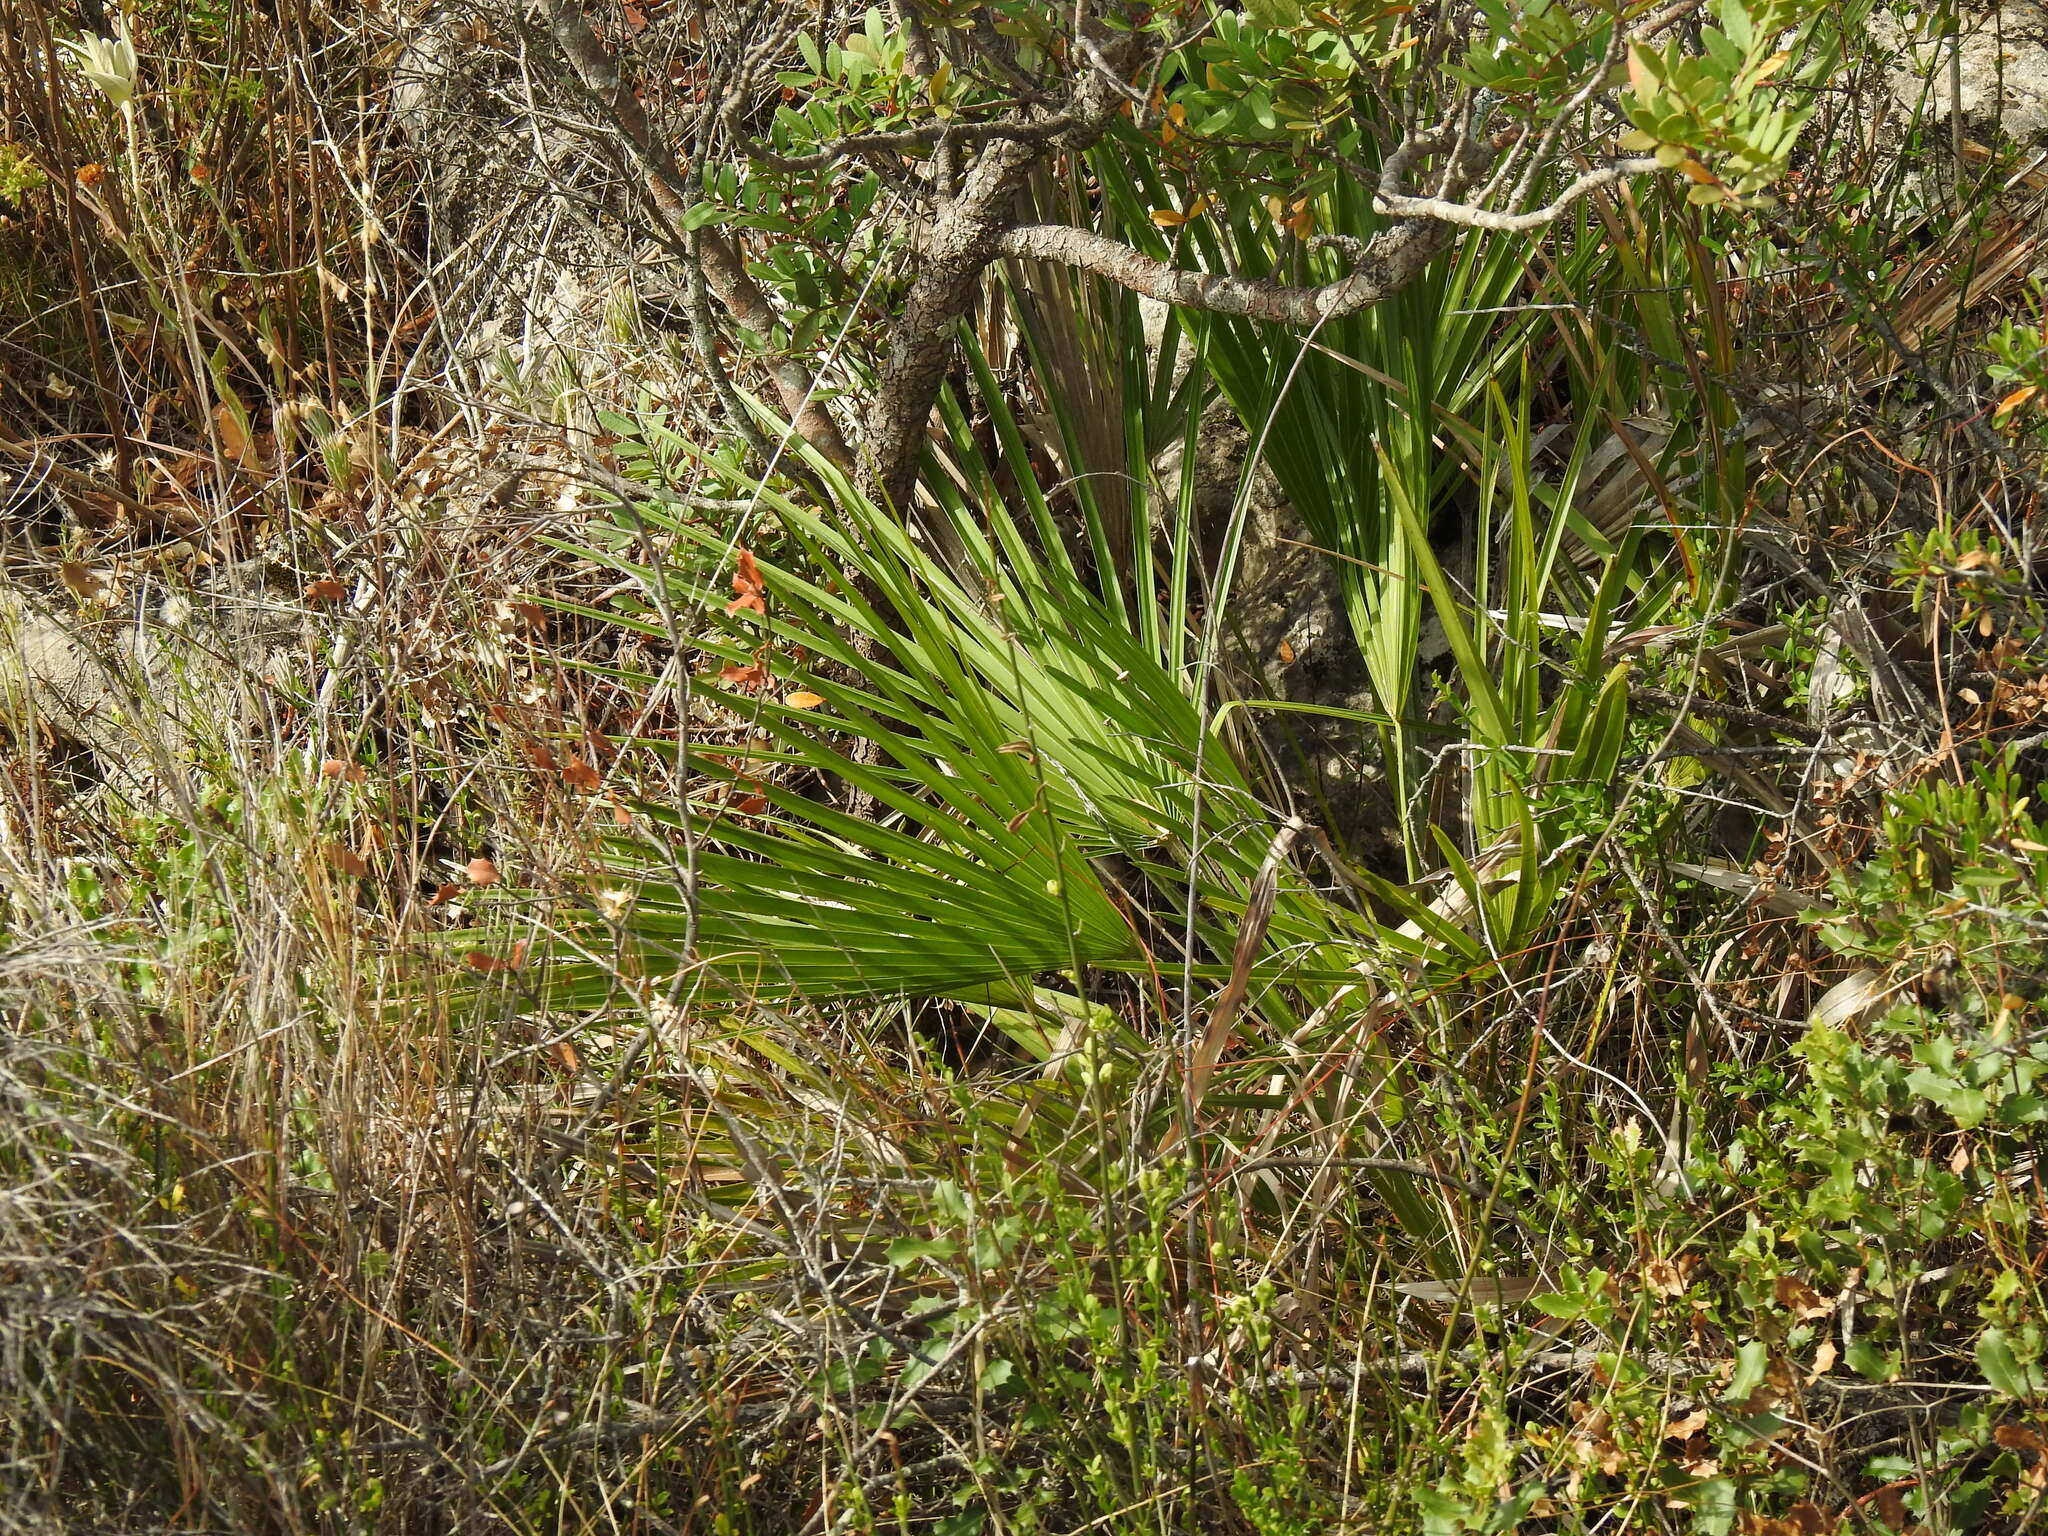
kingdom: Plantae
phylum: Tracheophyta
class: Liliopsida
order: Arecales
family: Arecaceae
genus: Chamaerops
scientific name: Chamaerops humilis
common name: Dwarf fan palm
